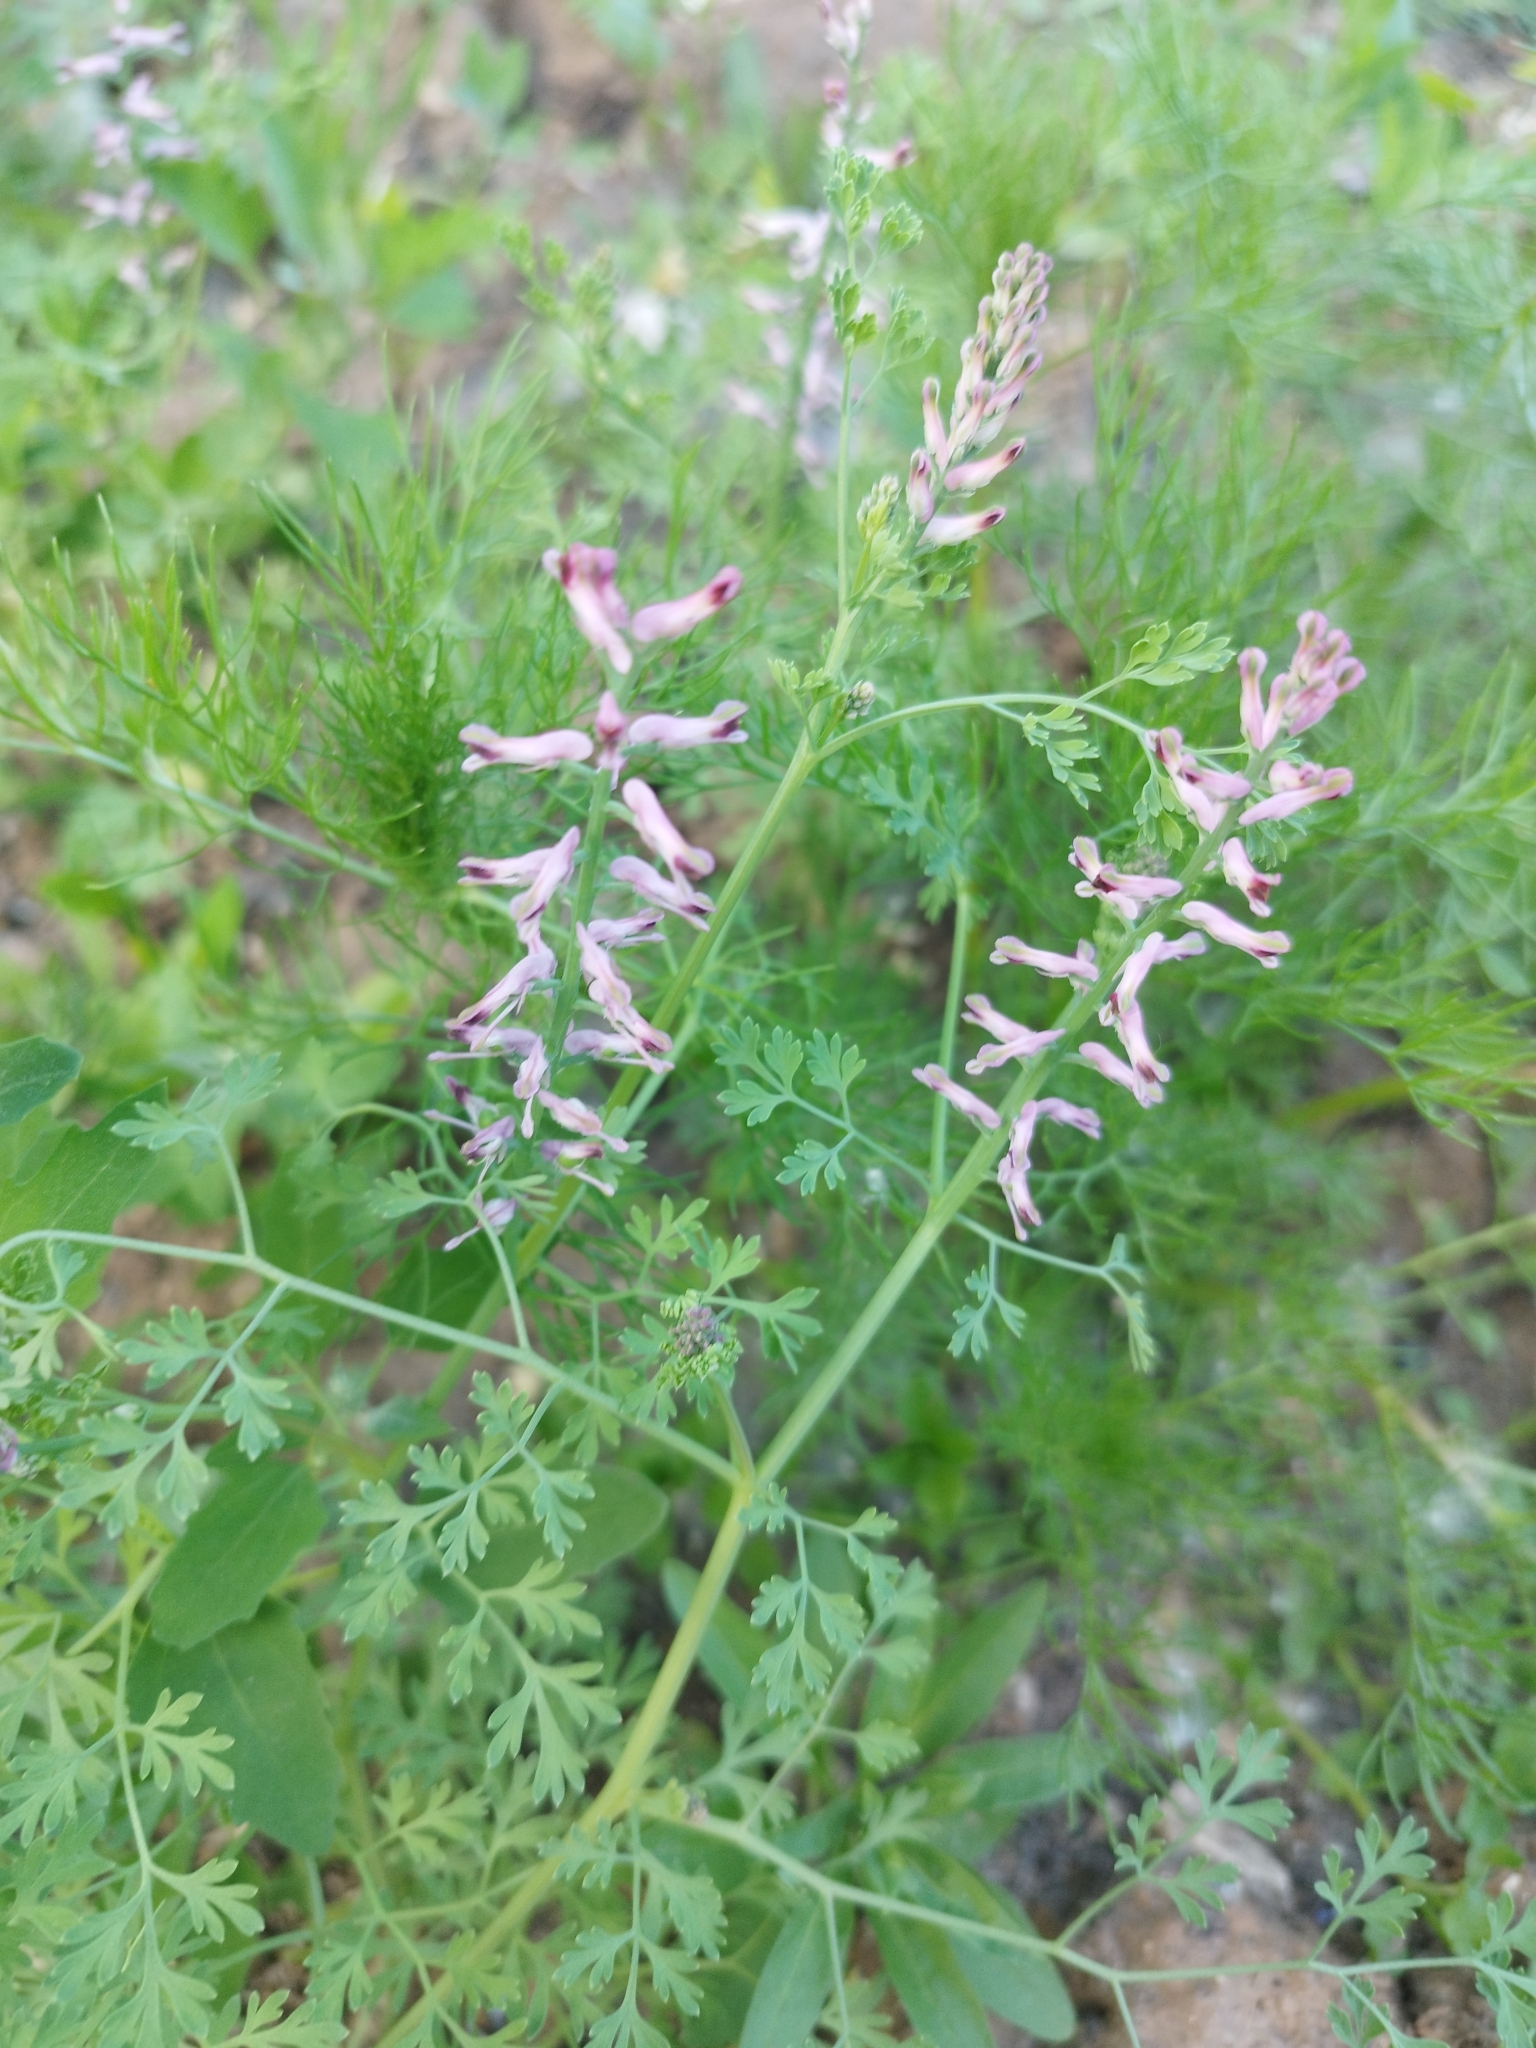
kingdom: Plantae
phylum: Tracheophyta
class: Magnoliopsida
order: Ranunculales
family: Papaveraceae
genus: Fumaria
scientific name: Fumaria officinalis
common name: Common fumitory
